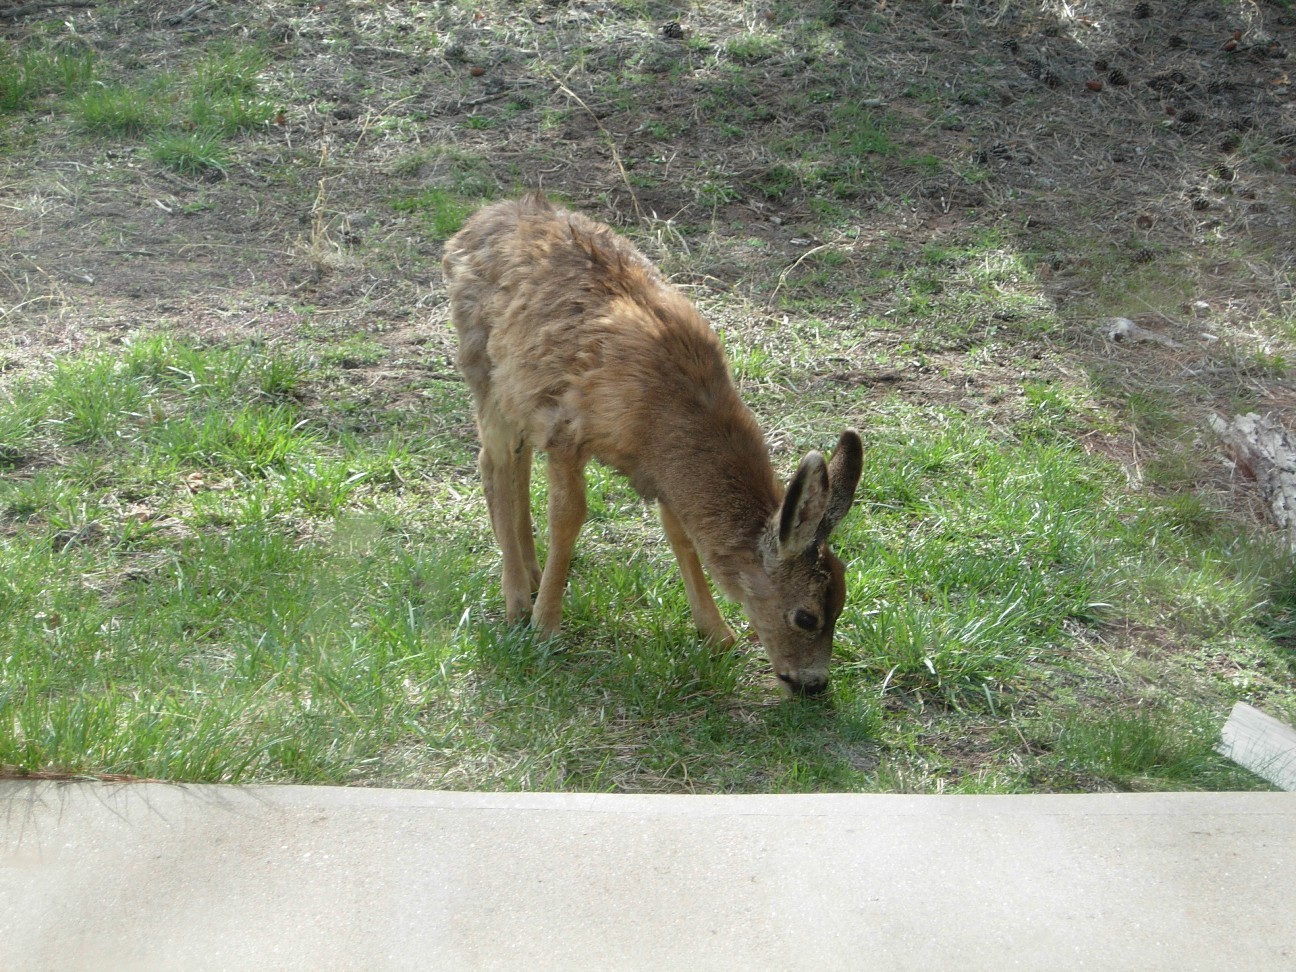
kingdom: Animalia
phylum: Chordata
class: Mammalia
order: Artiodactyla
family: Cervidae
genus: Odocoileus
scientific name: Odocoileus hemionus
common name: Mule deer
